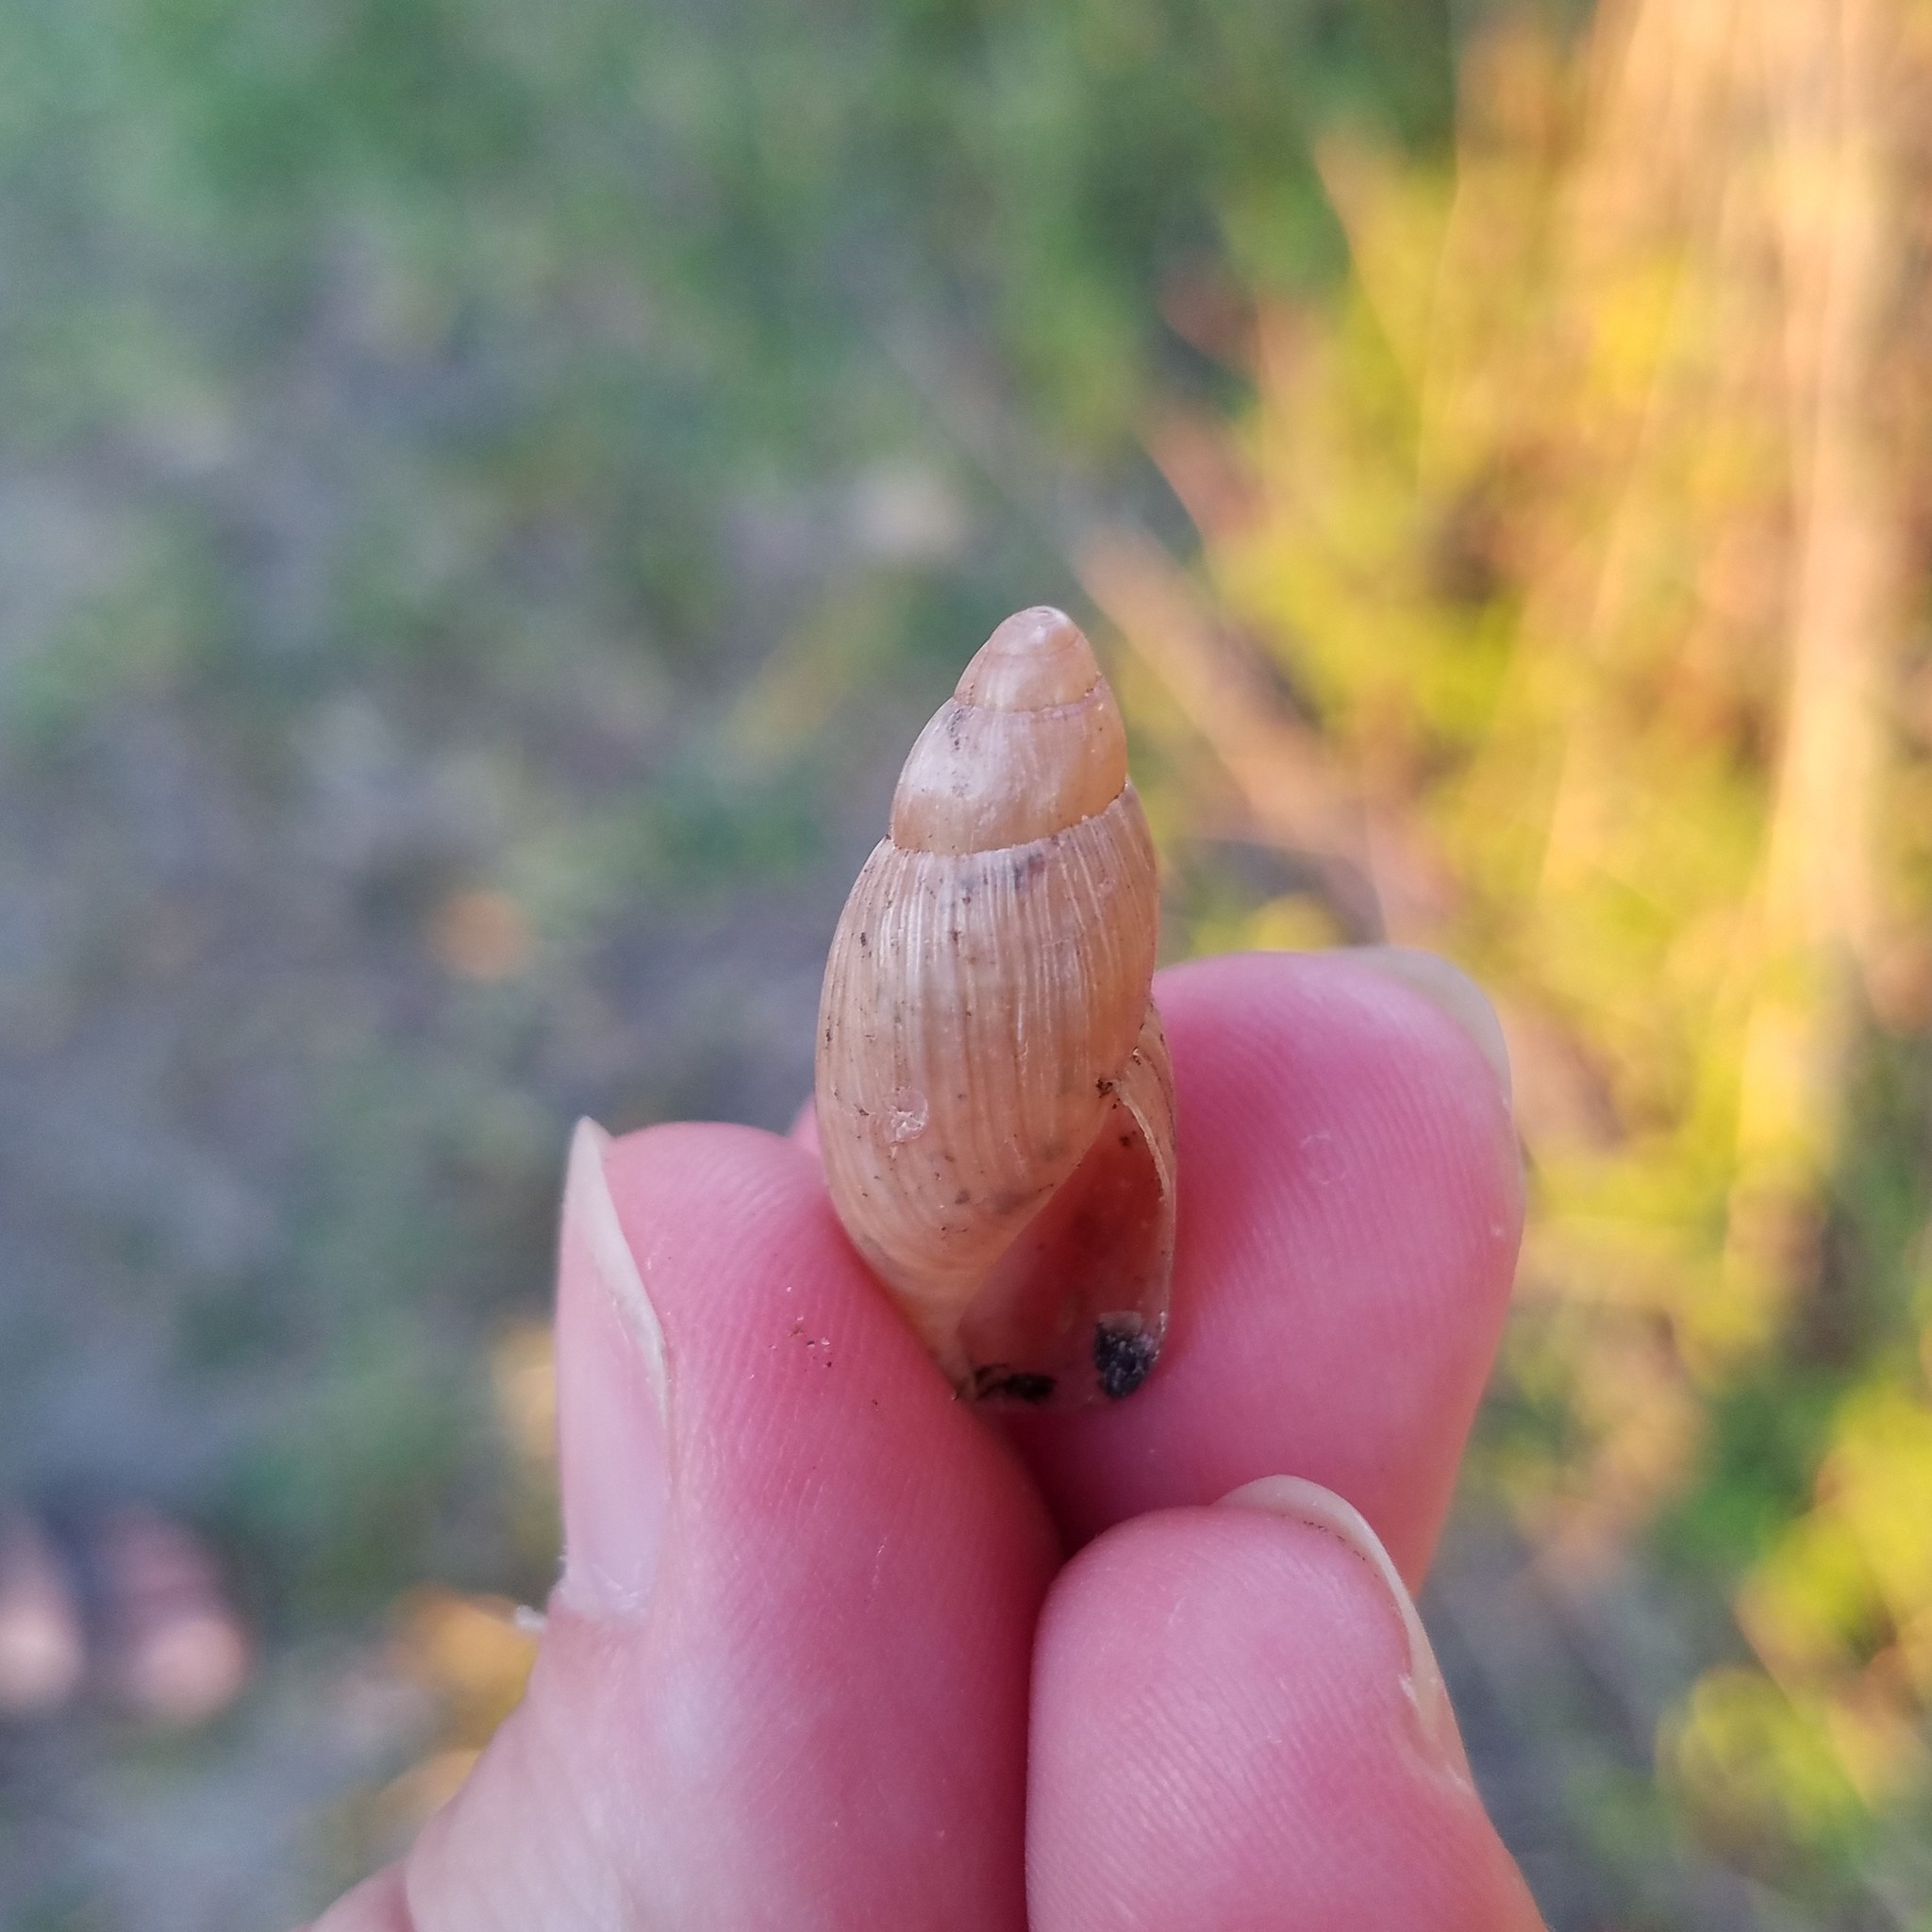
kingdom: Animalia
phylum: Mollusca
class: Gastropoda
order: Stylommatophora
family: Spiraxidae
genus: Euglandina
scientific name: Euglandina rosea
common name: Rosy wolfsnail
